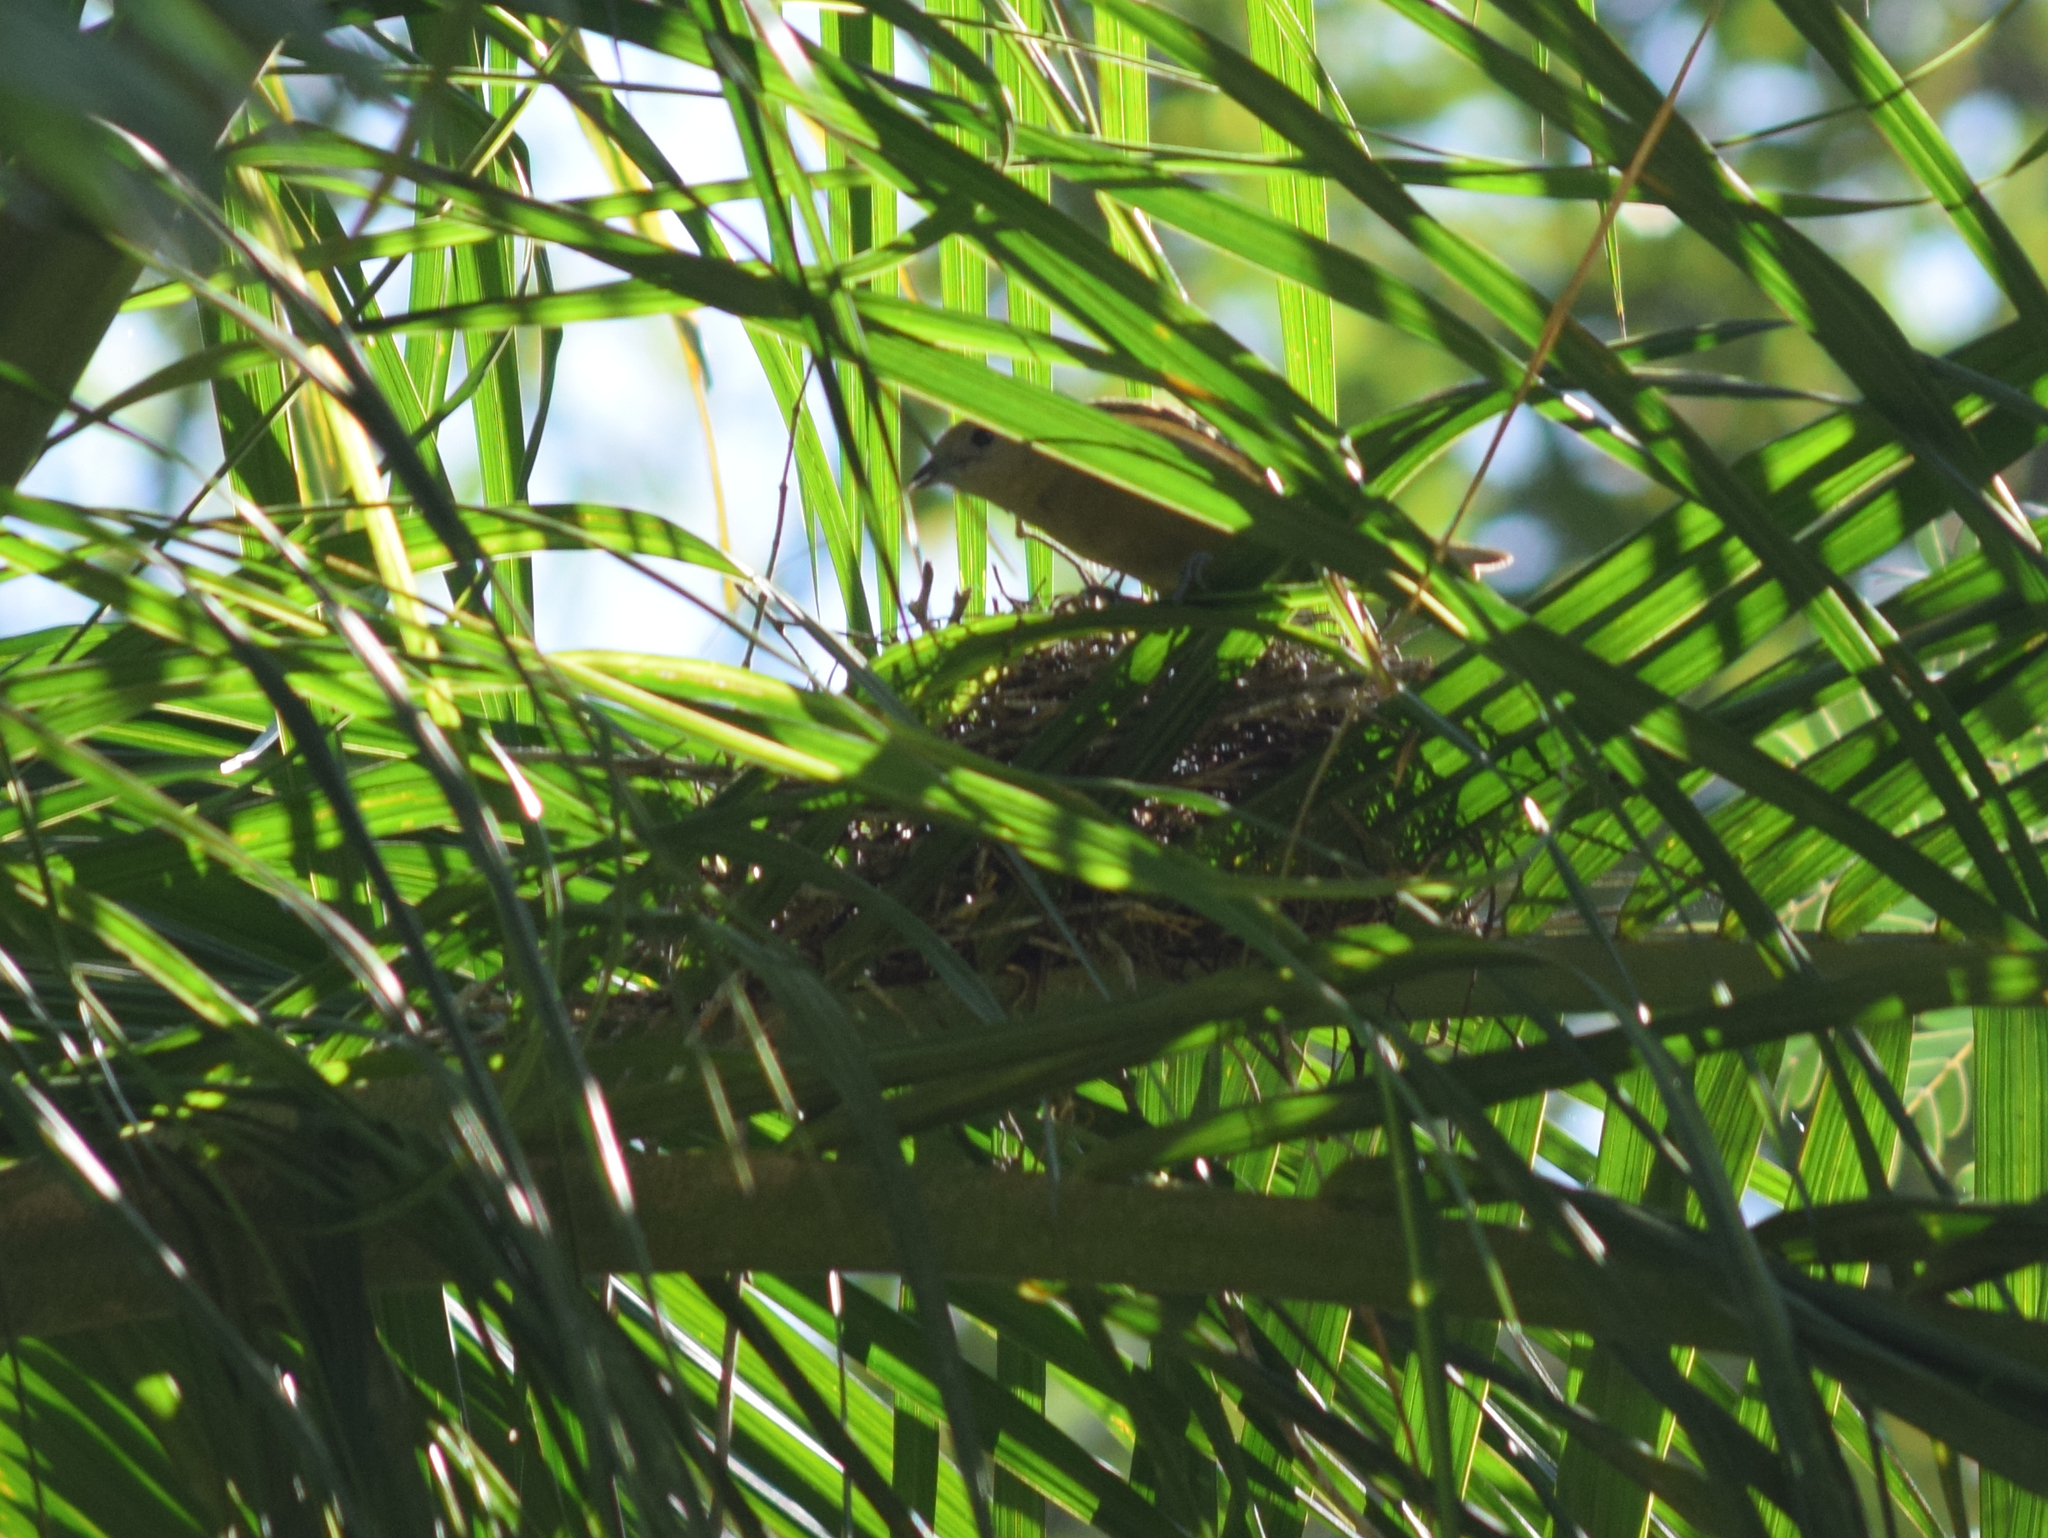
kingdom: Animalia
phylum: Chordata
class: Aves
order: Passeriformes
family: Thraupidae
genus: Thraupis
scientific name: Thraupis palmarum
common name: Palm tanager
